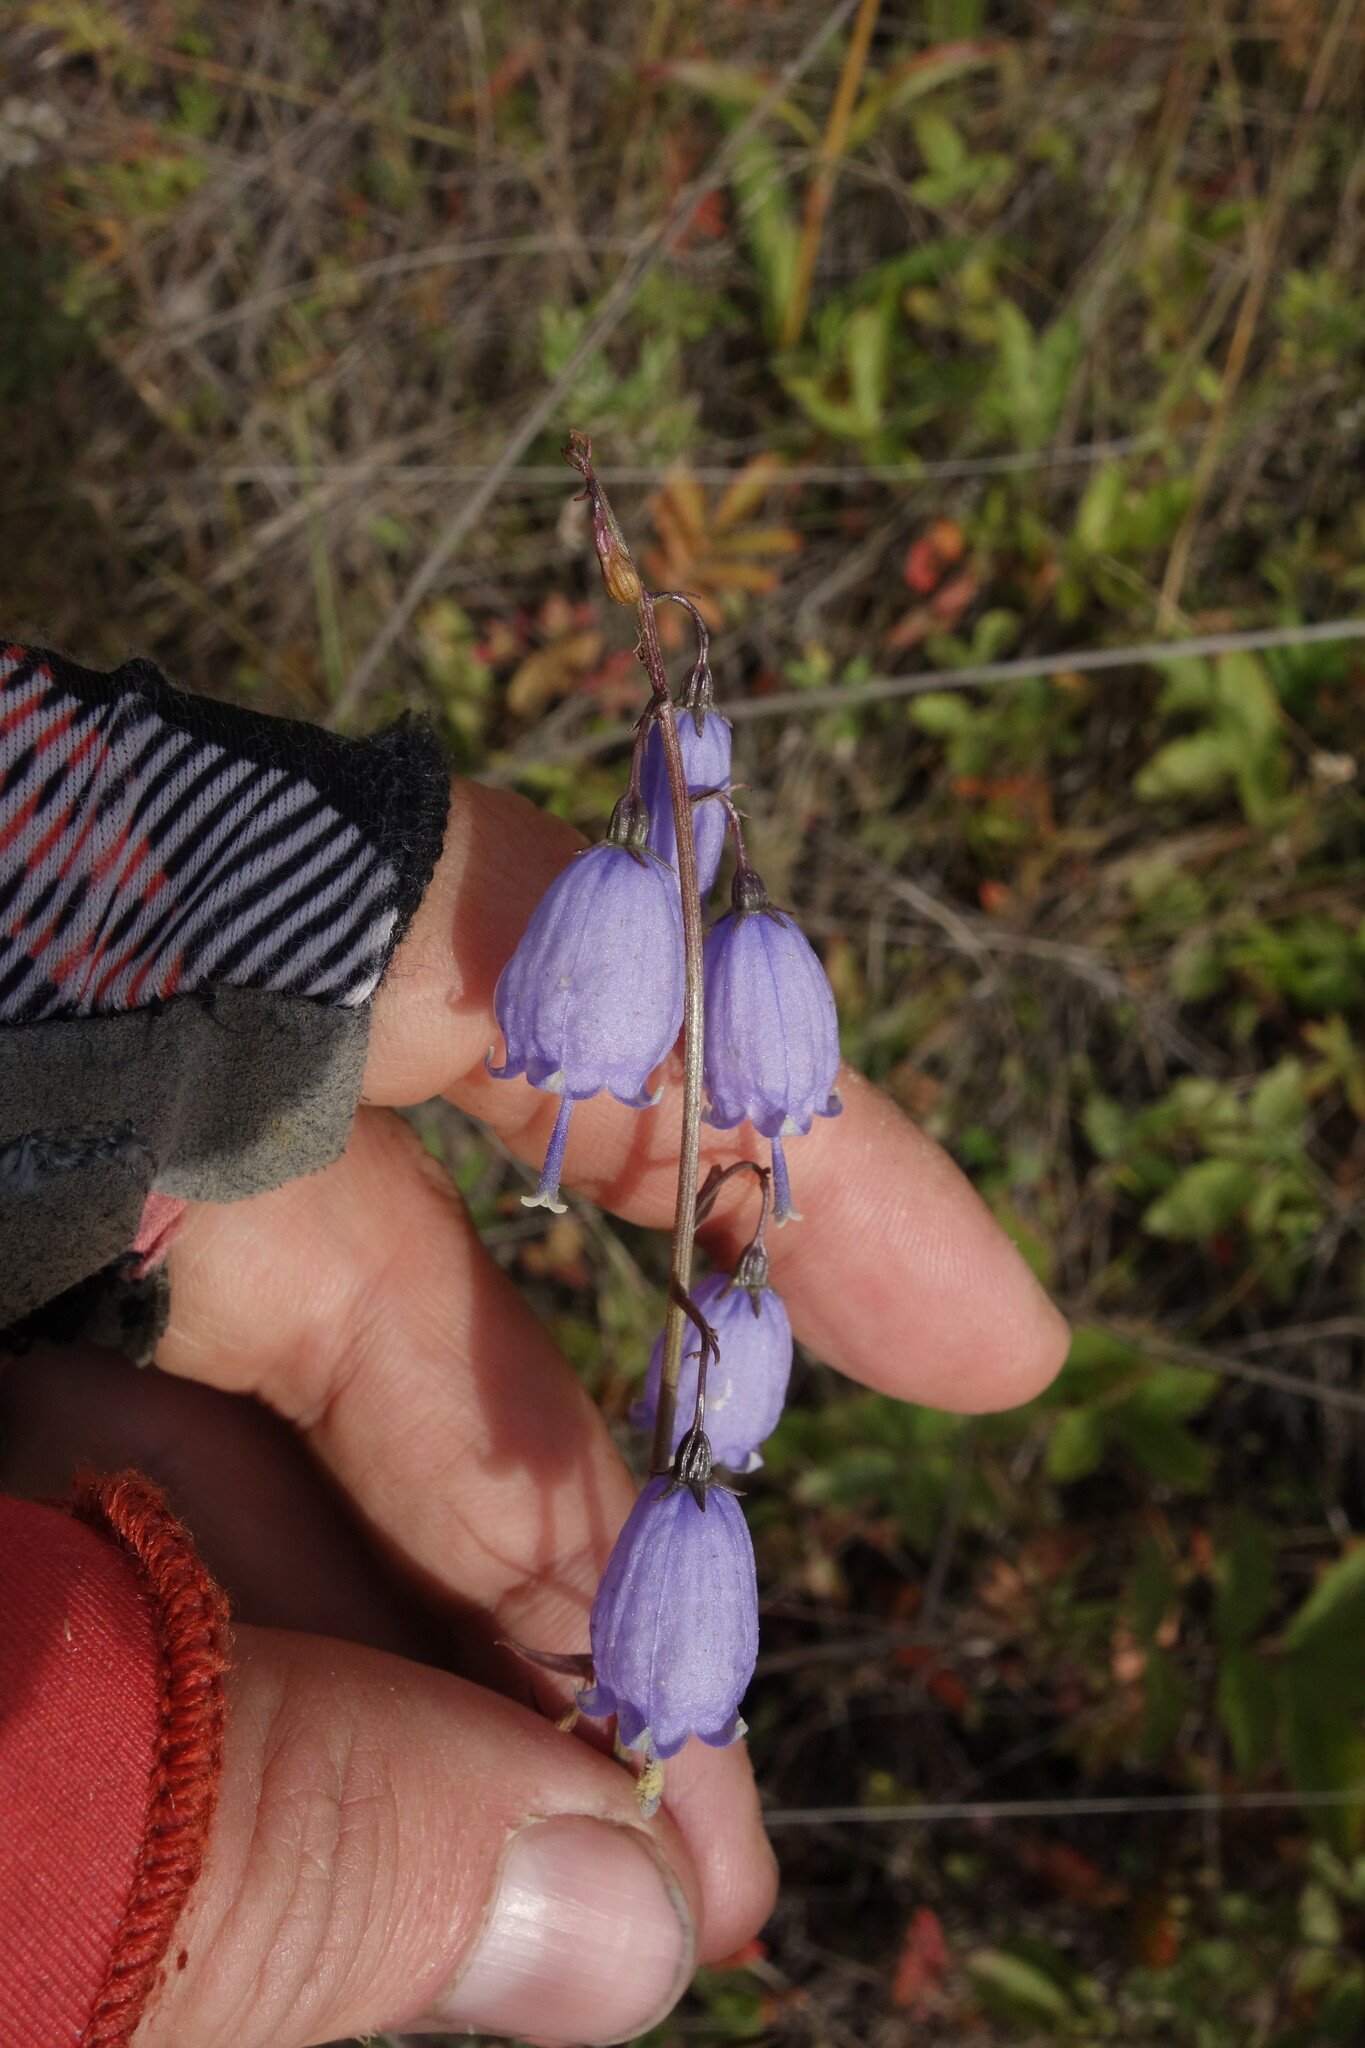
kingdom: Plantae
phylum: Tracheophyta
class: Magnoliopsida
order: Asterales
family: Campanulaceae
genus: Adenophora
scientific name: Adenophora stenanthina
